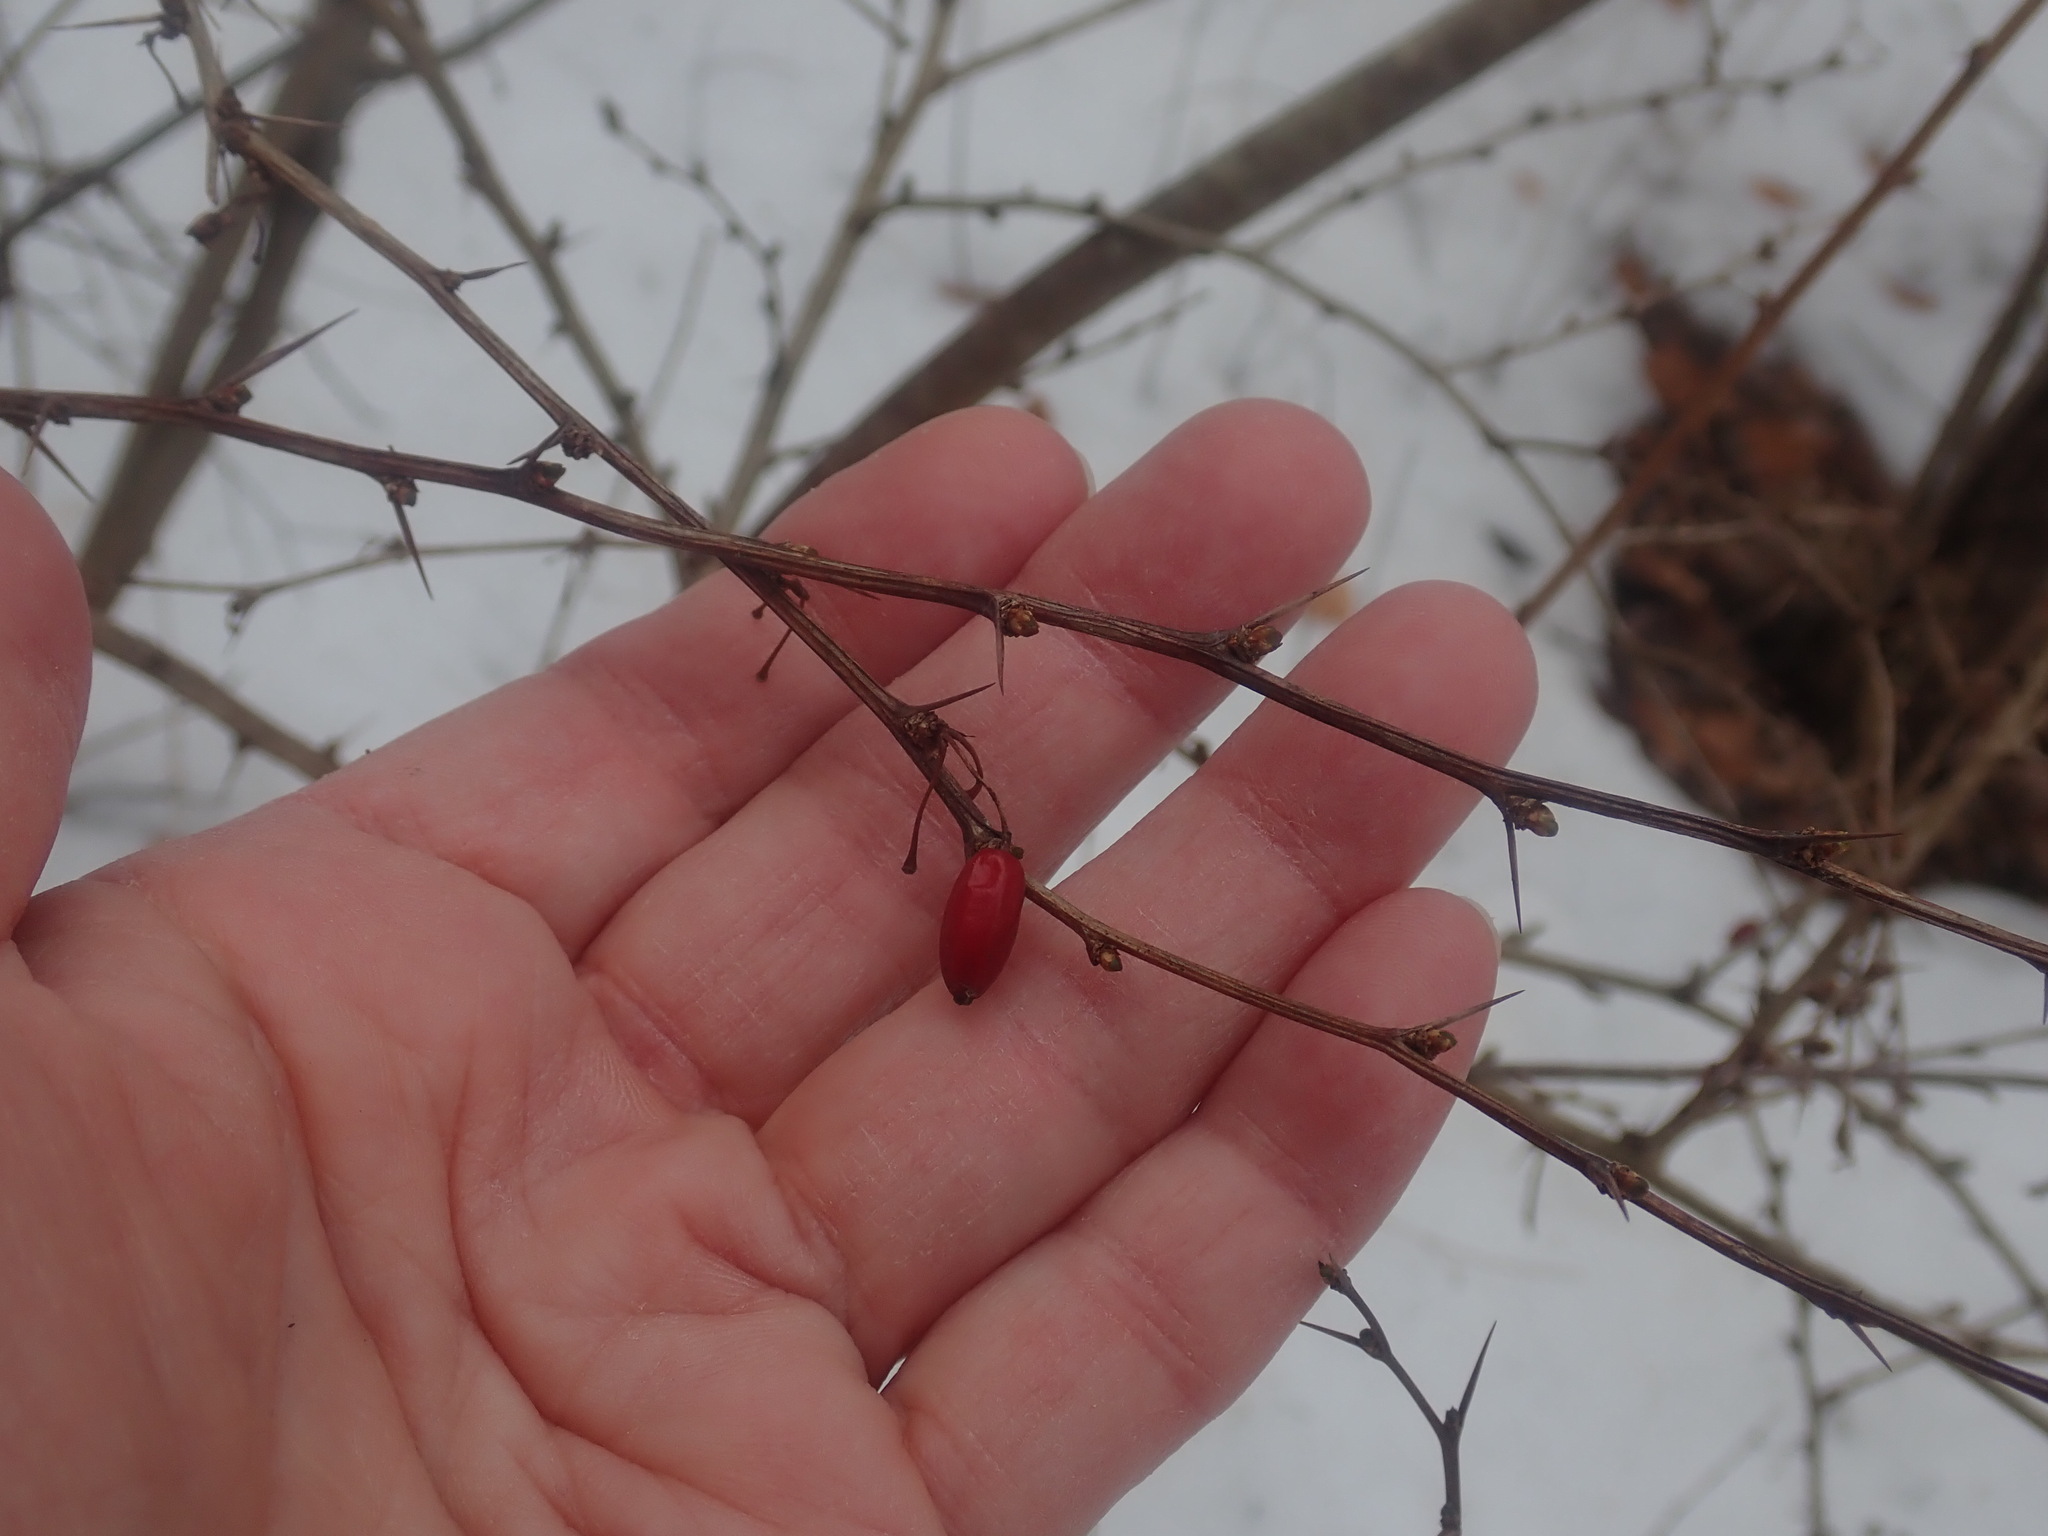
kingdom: Plantae
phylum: Tracheophyta
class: Magnoliopsida
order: Ranunculales
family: Berberidaceae
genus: Berberis
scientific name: Berberis thunbergii
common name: Japanese barberry
